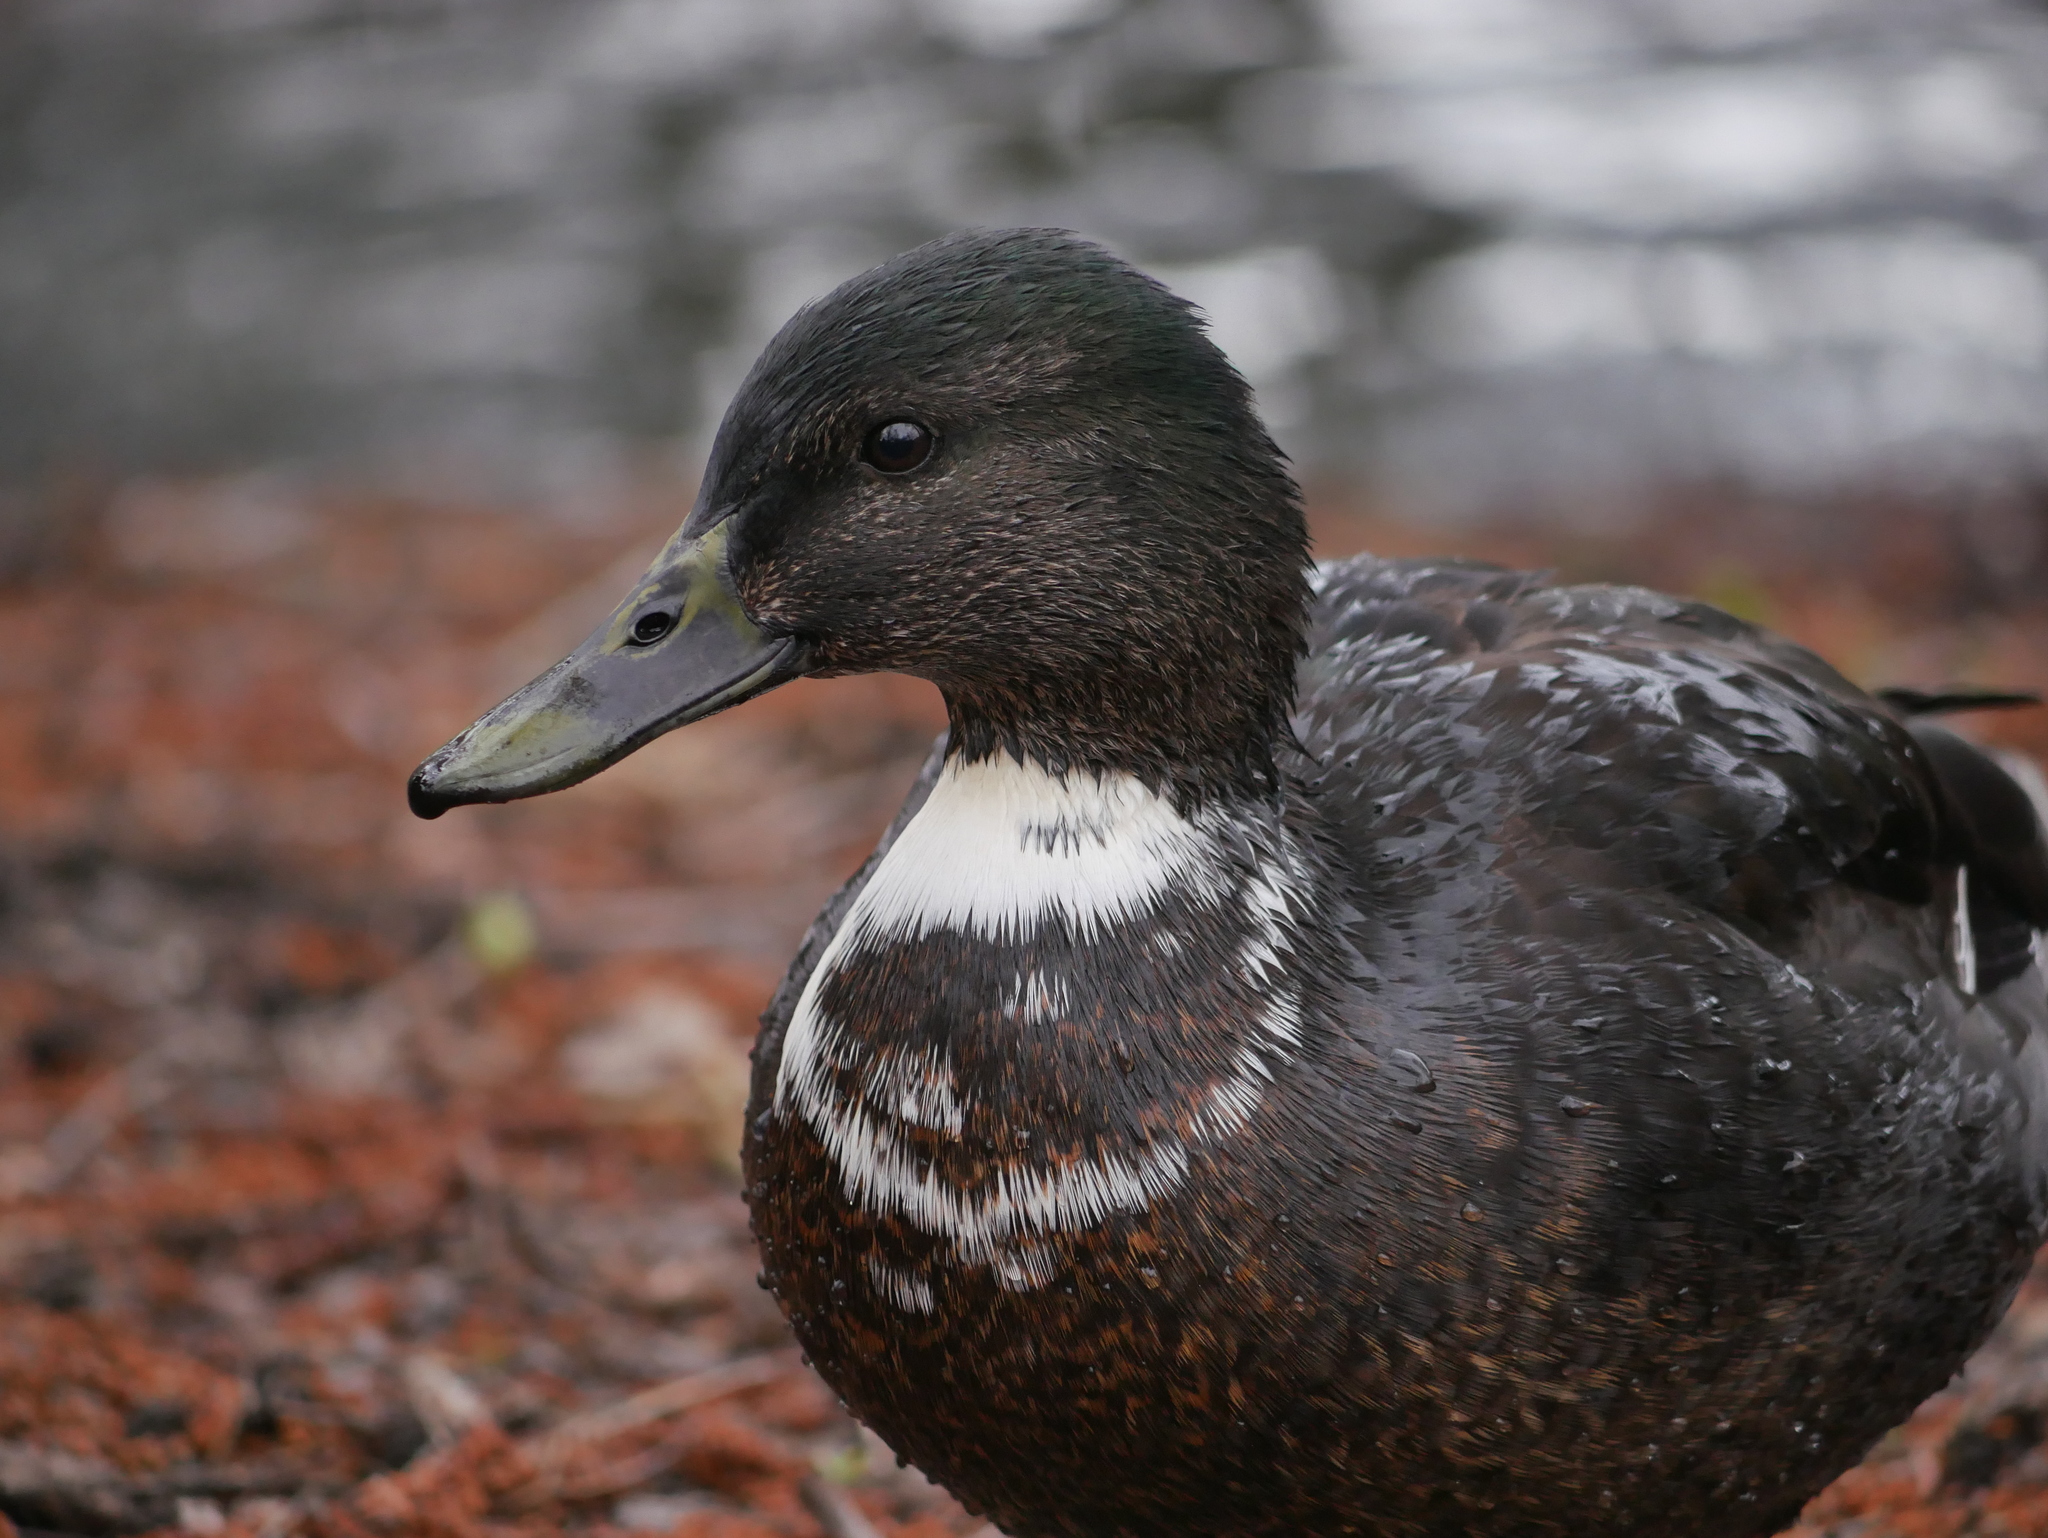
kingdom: Animalia
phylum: Chordata
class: Aves
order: Anseriformes
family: Anatidae
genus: Anas
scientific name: Anas platyrhynchos
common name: Mallard
